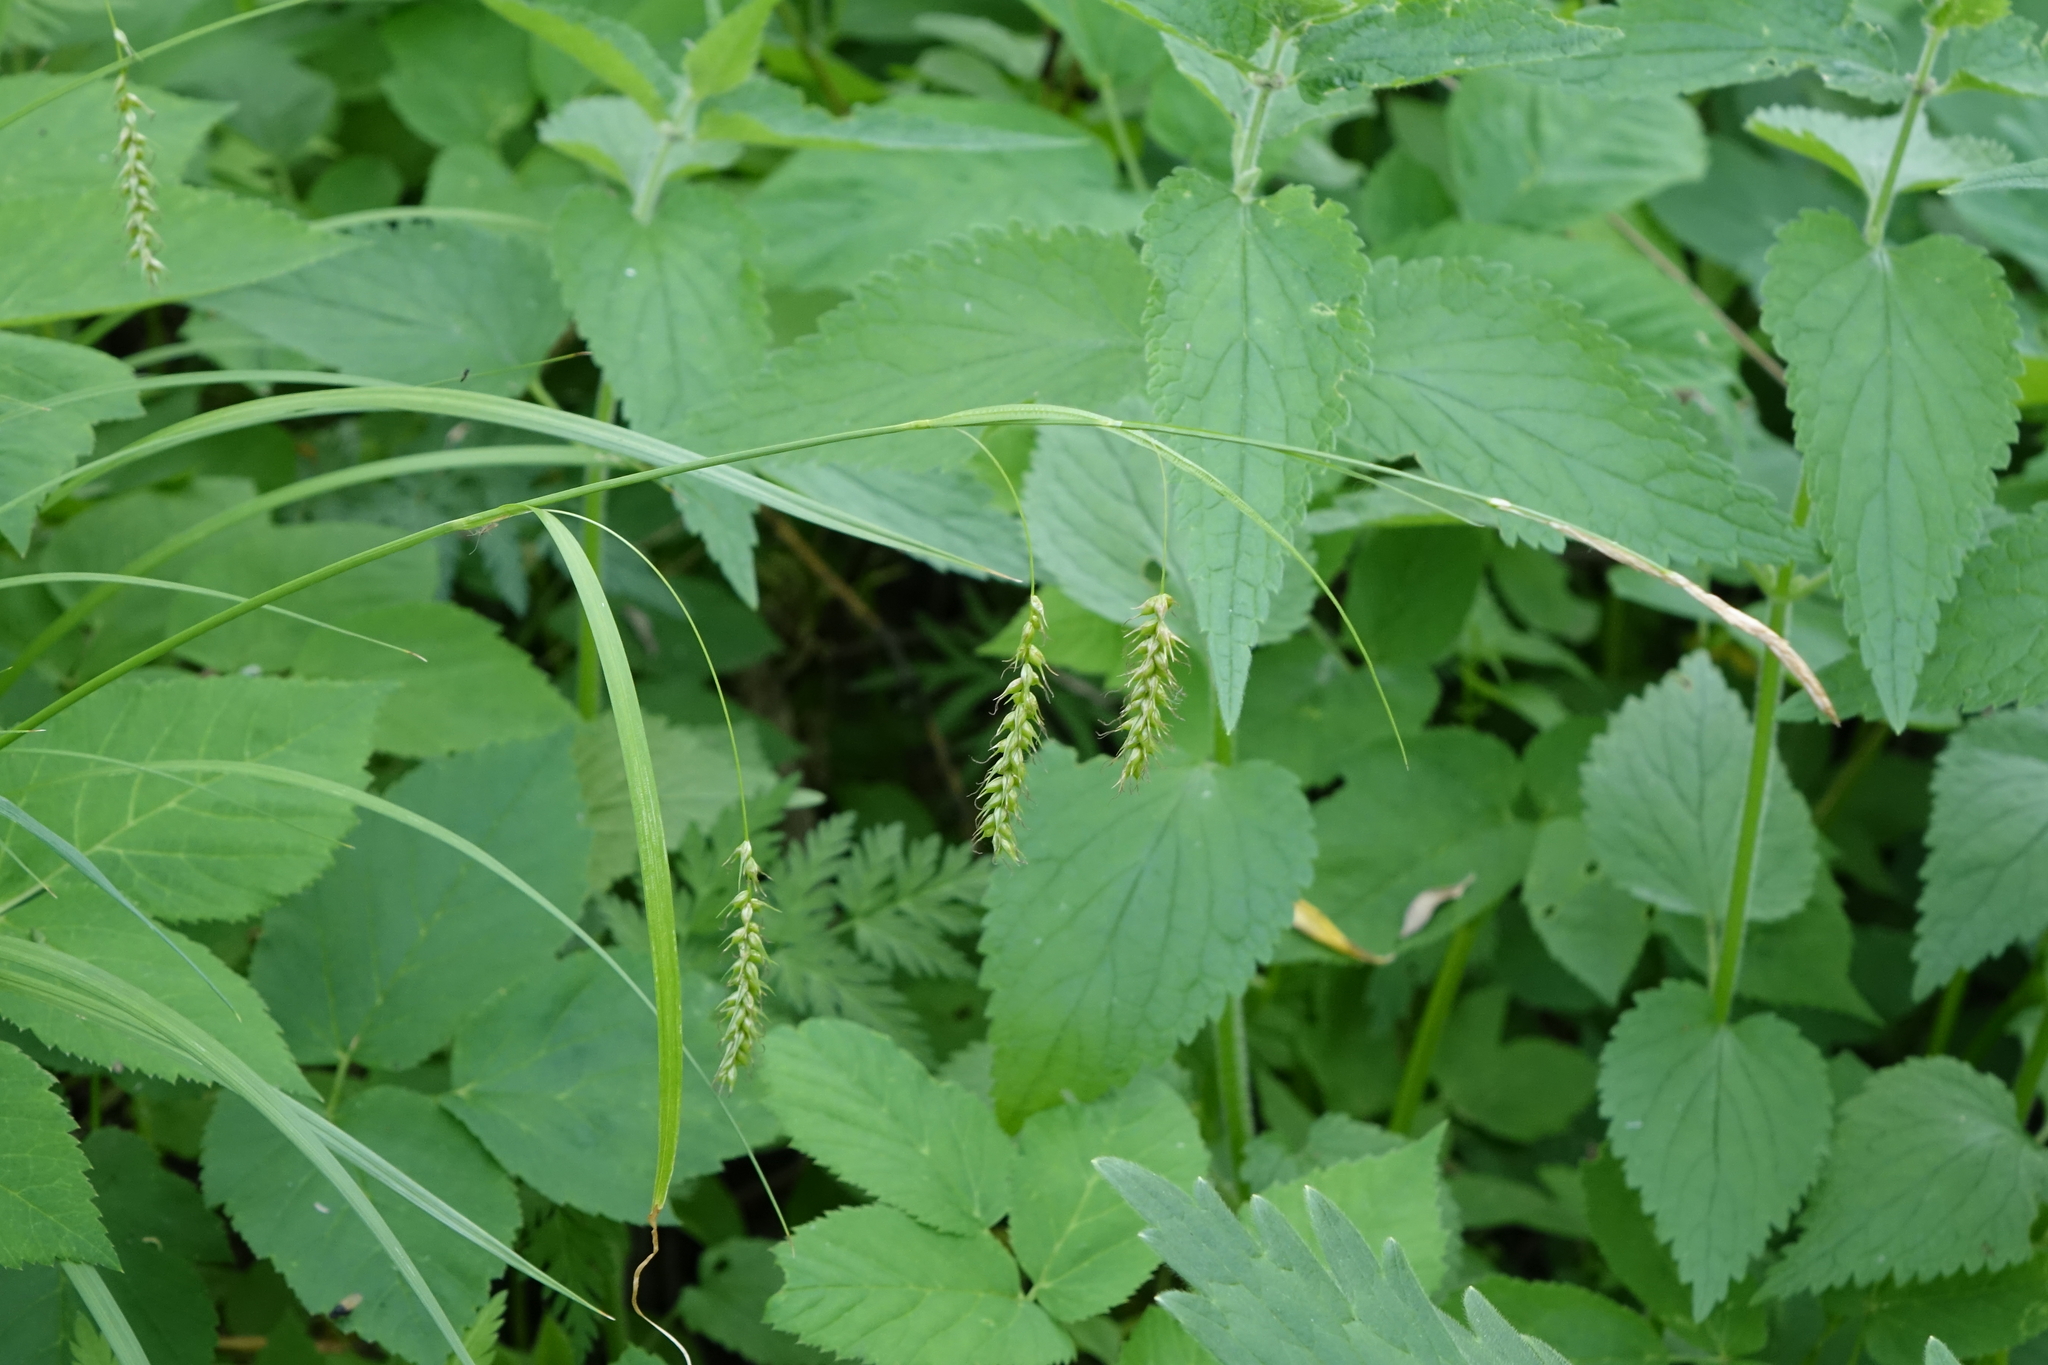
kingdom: Plantae
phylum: Tracheophyta
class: Liliopsida
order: Poales
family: Cyperaceae
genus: Carex
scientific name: Carex arnellii
